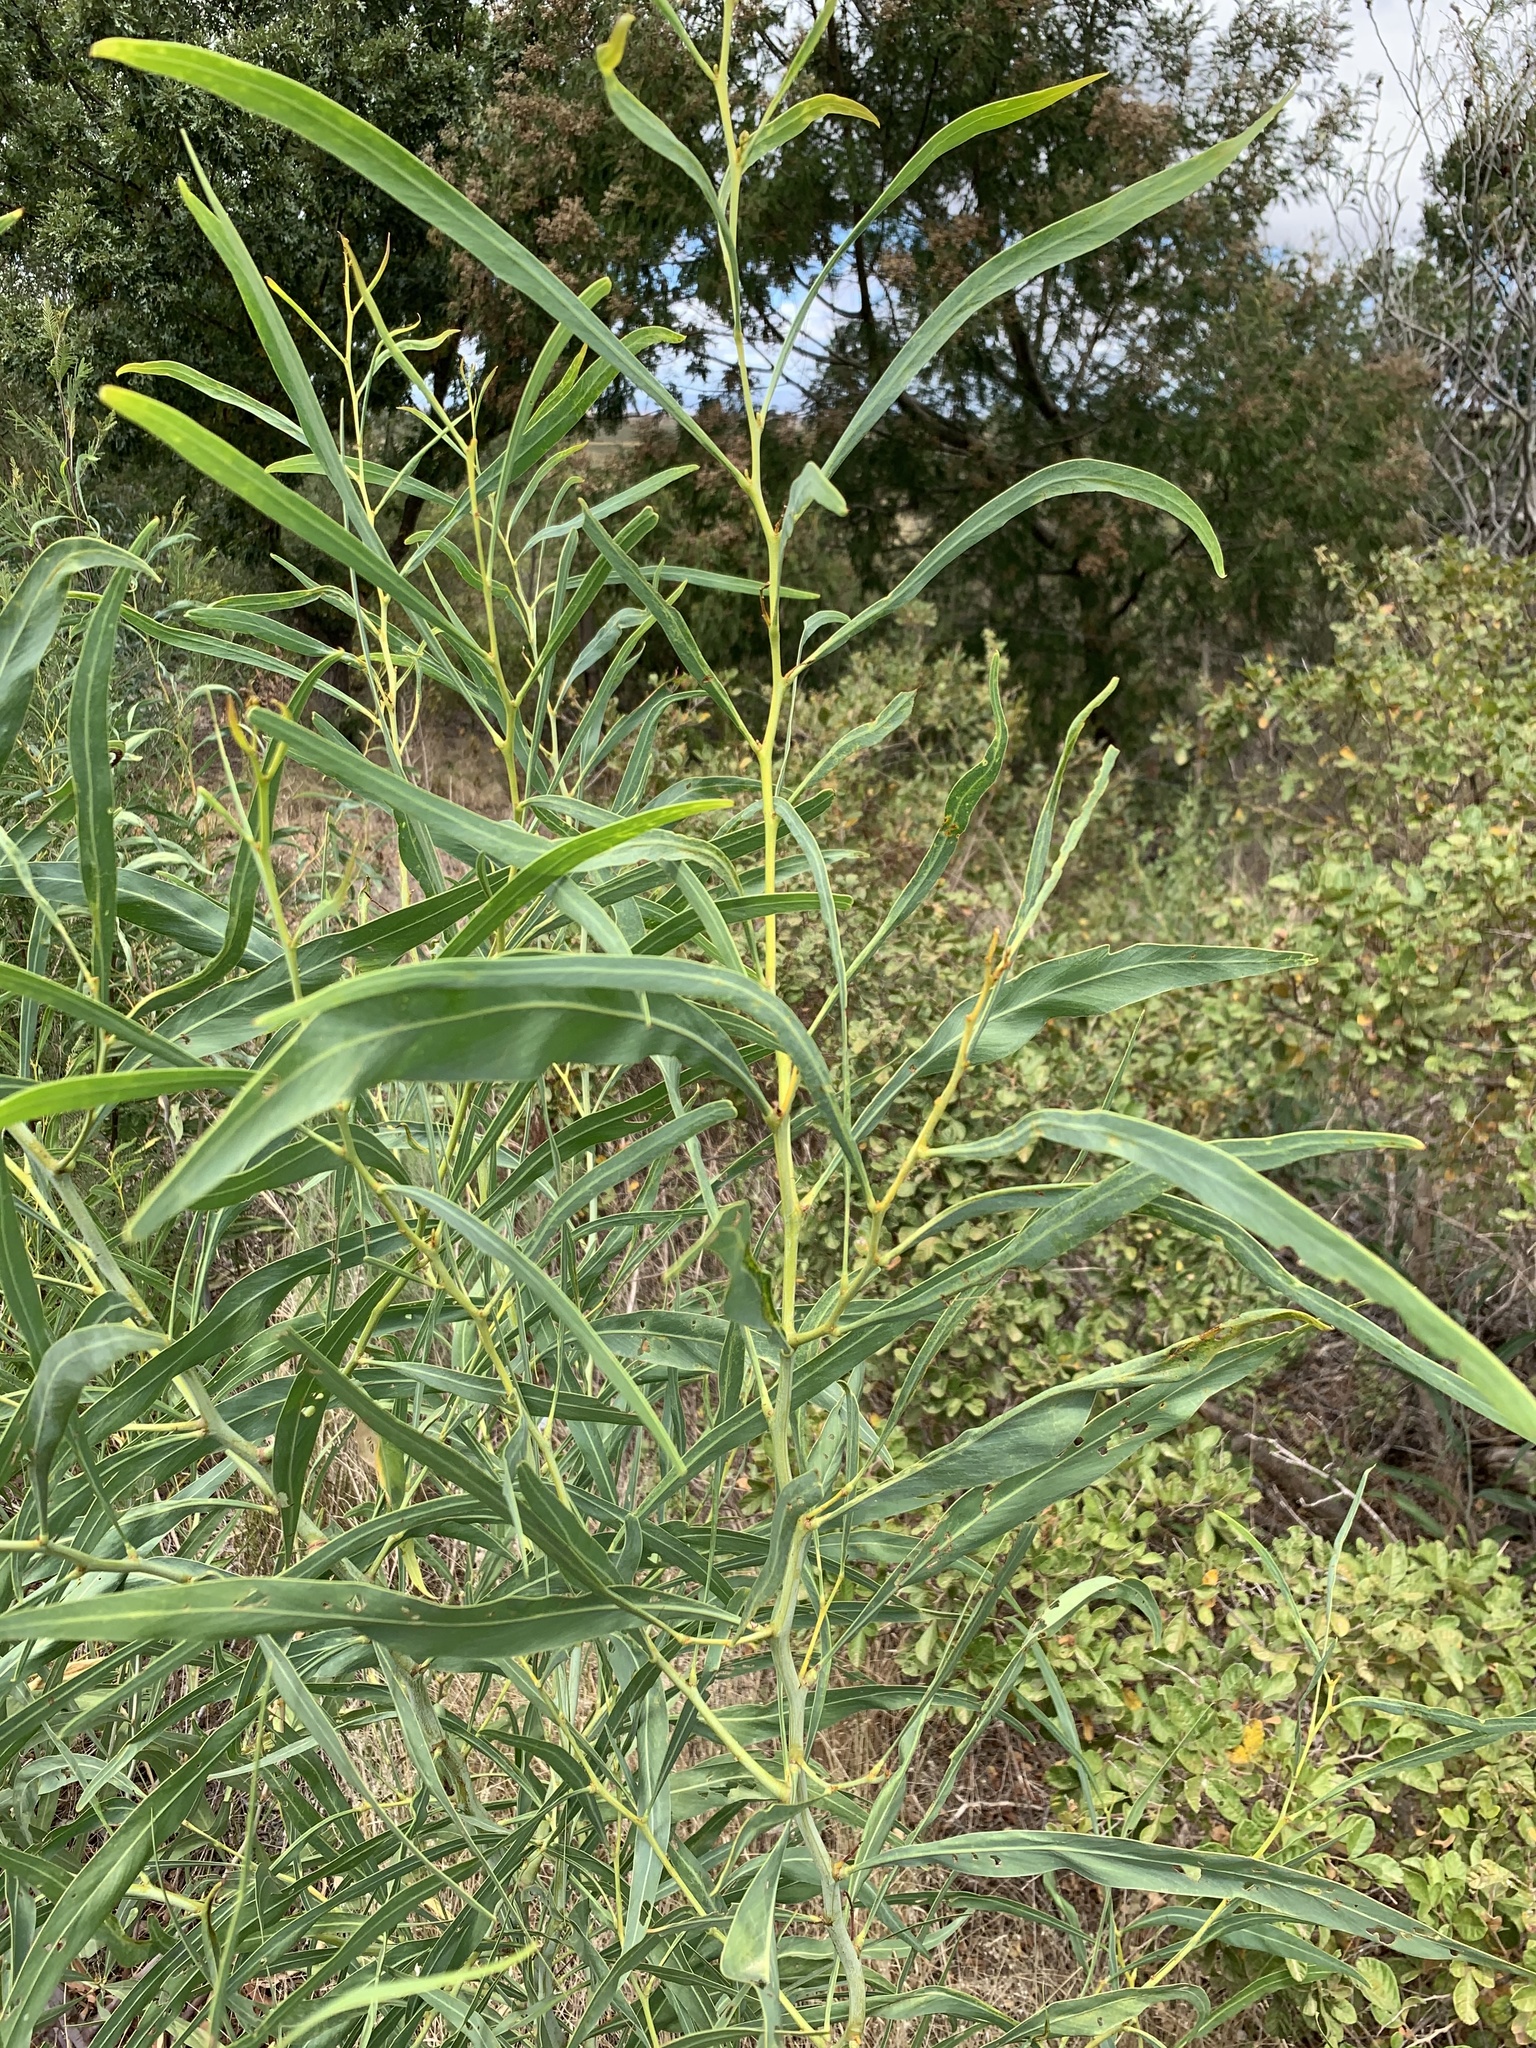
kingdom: Plantae
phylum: Tracheophyta
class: Magnoliopsida
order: Fabales
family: Fabaceae
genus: Acacia
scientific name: Acacia saligna
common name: Orange wattle
